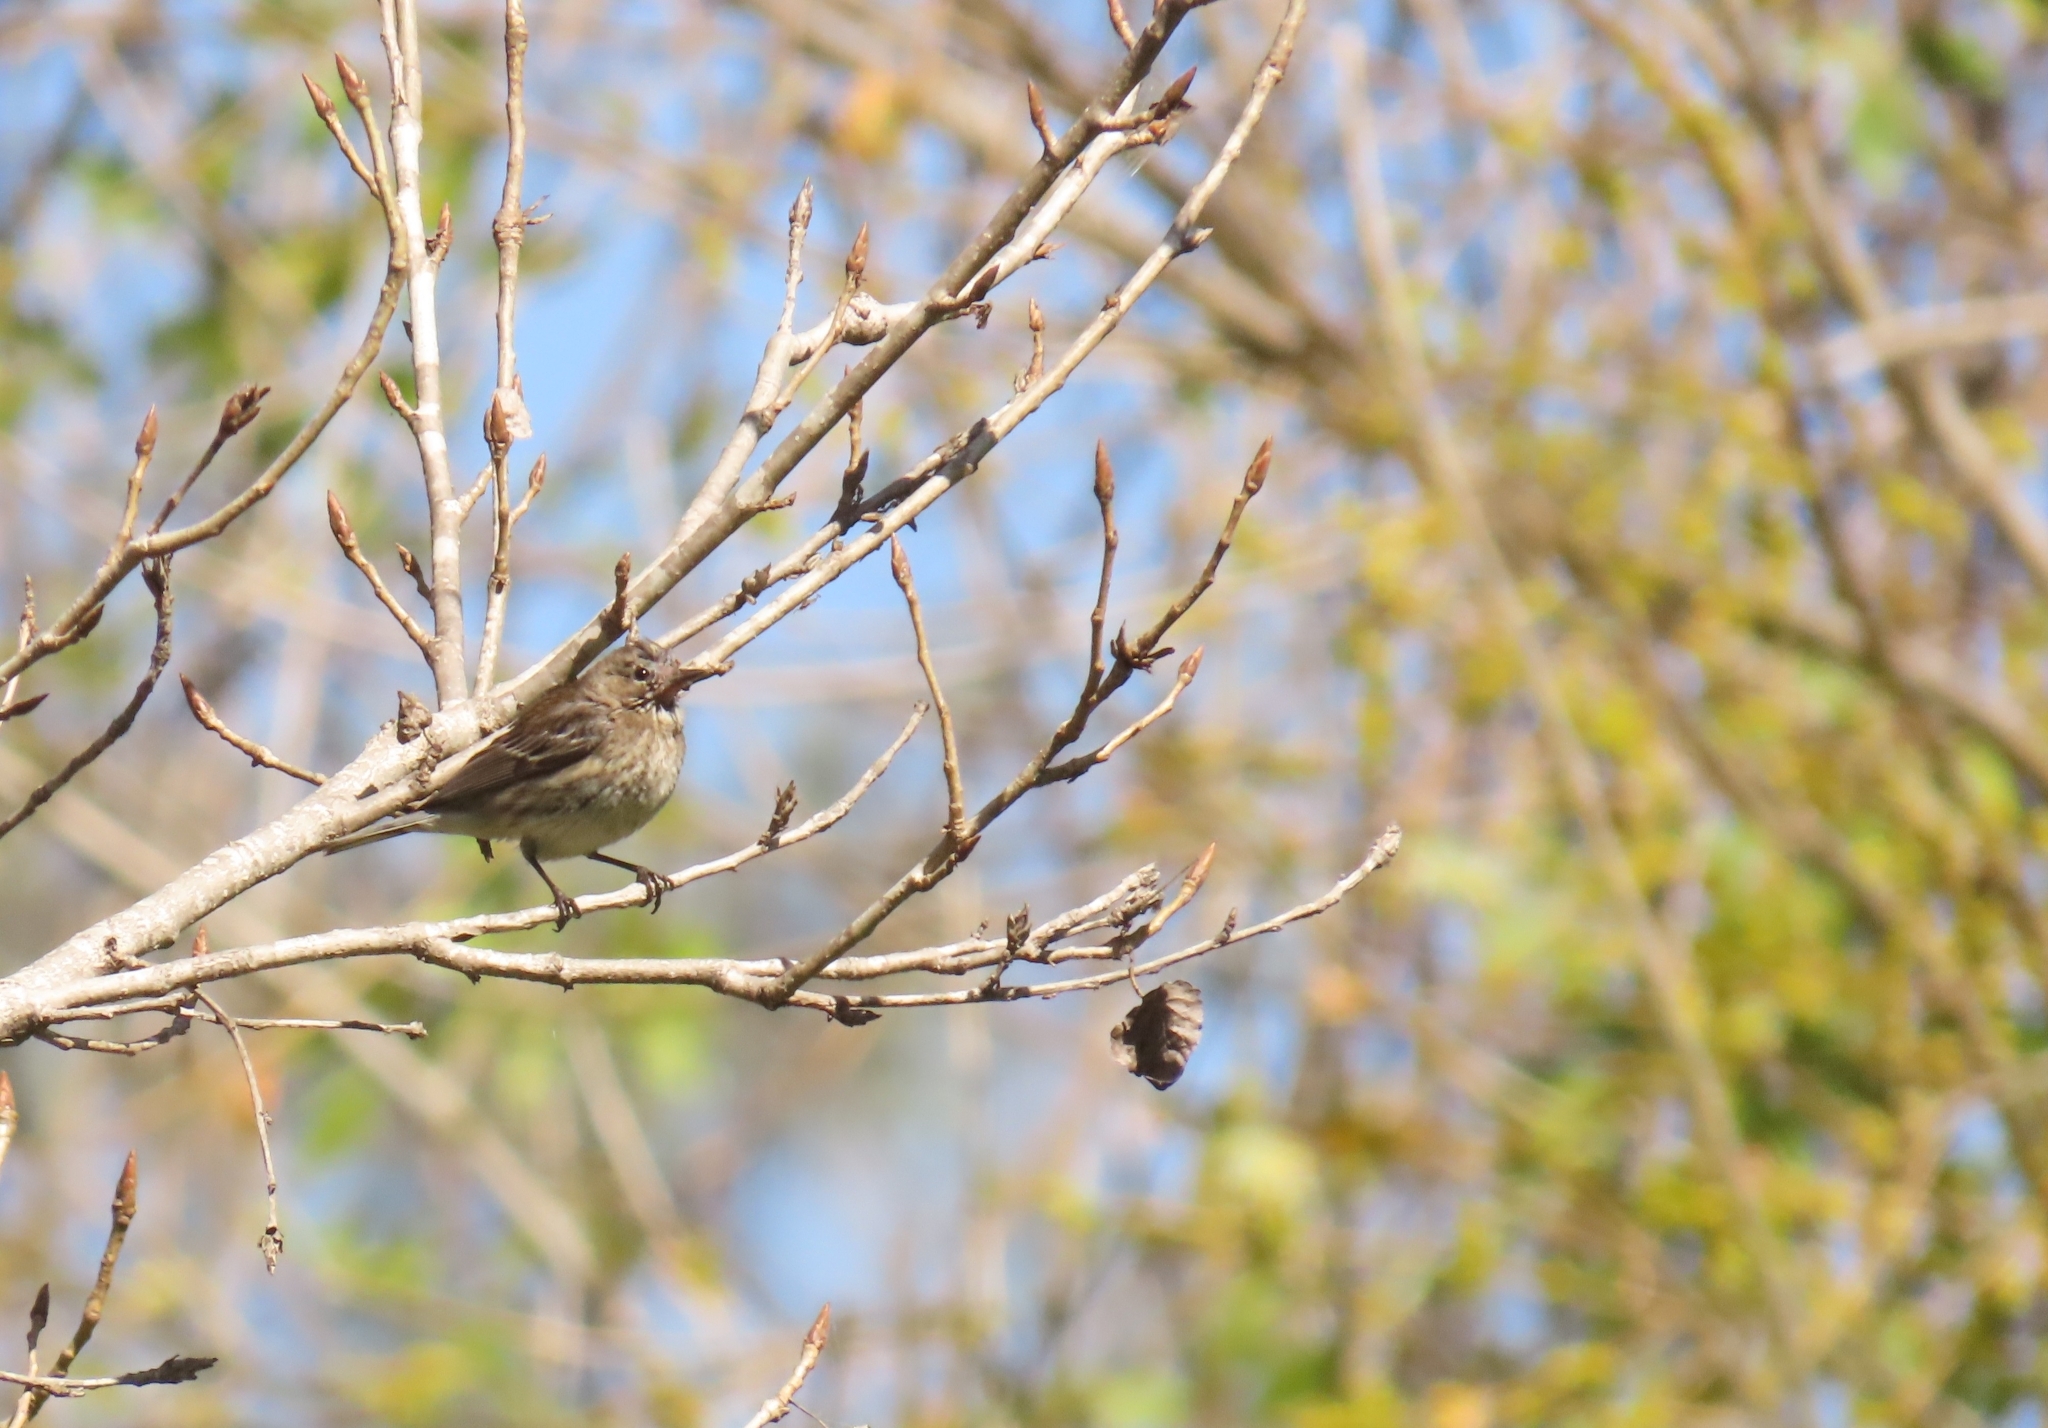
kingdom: Animalia
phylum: Chordata
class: Aves
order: Passeriformes
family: Parulidae
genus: Setophaga
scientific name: Setophaga coronata
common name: Myrtle warbler
